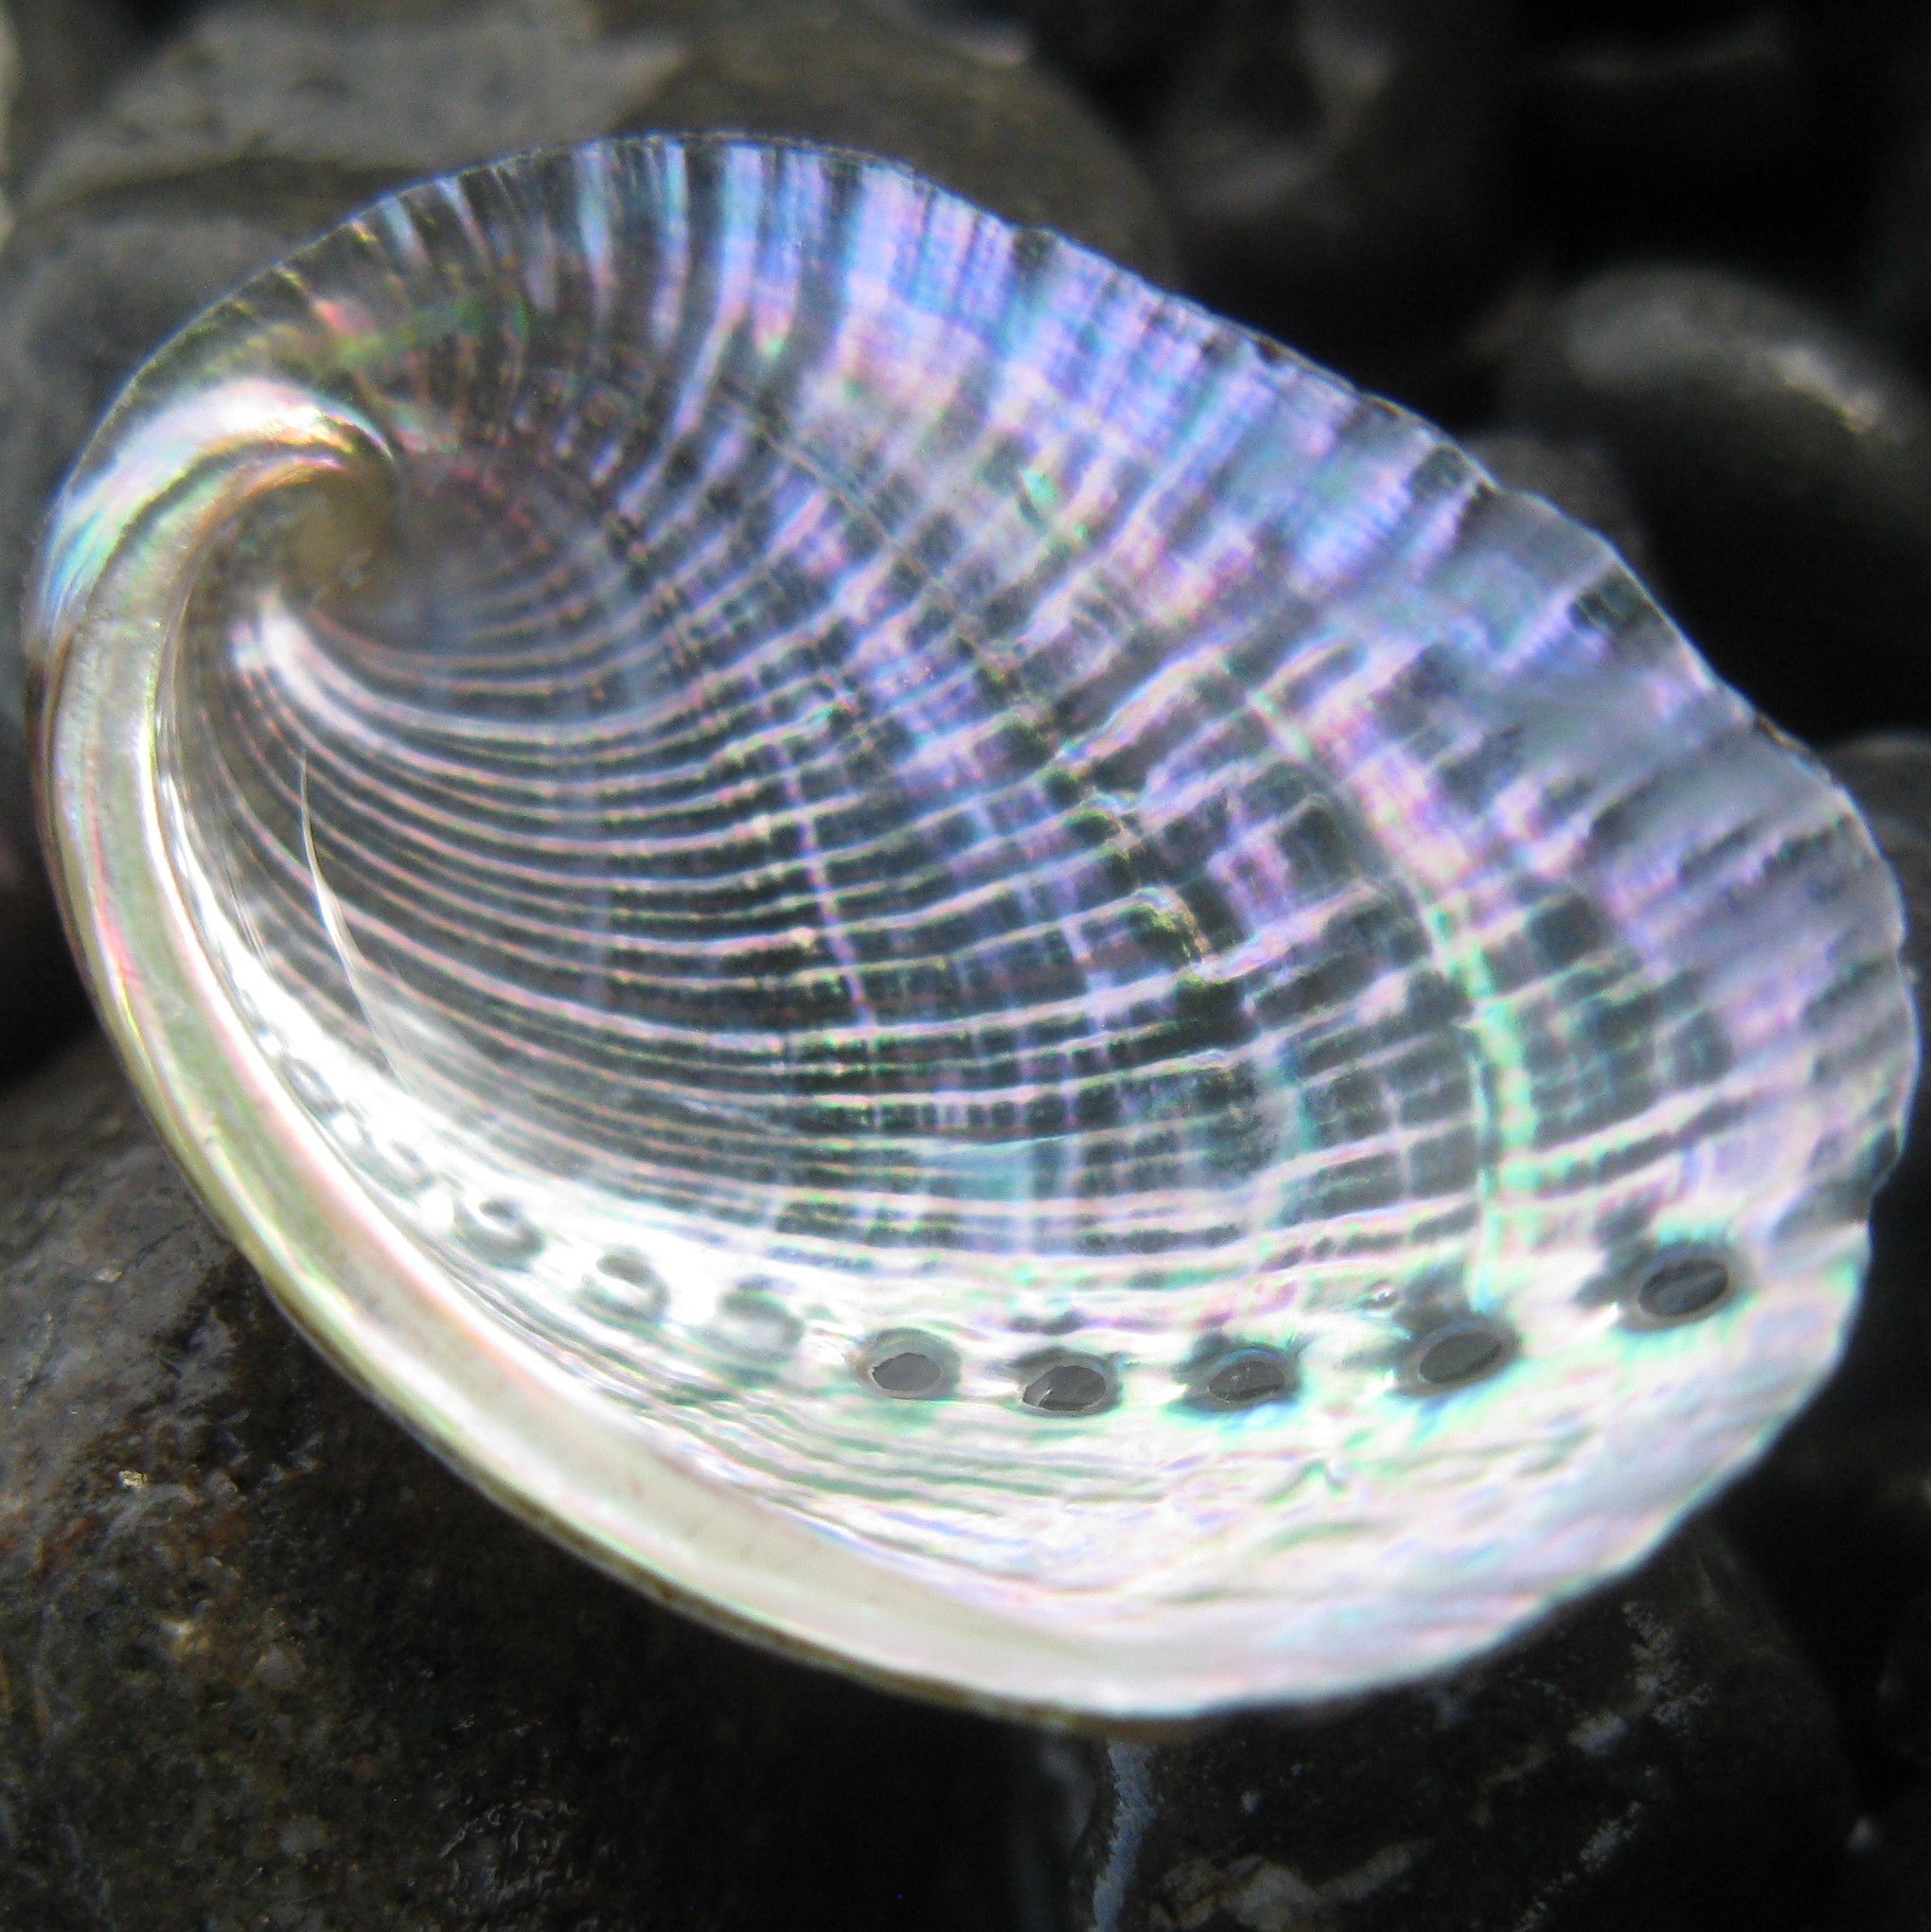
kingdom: Animalia
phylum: Mollusca
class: Gastropoda
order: Lepetellida
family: Haliotidae
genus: Haliotis
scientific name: Haliotis iris
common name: Abalone
